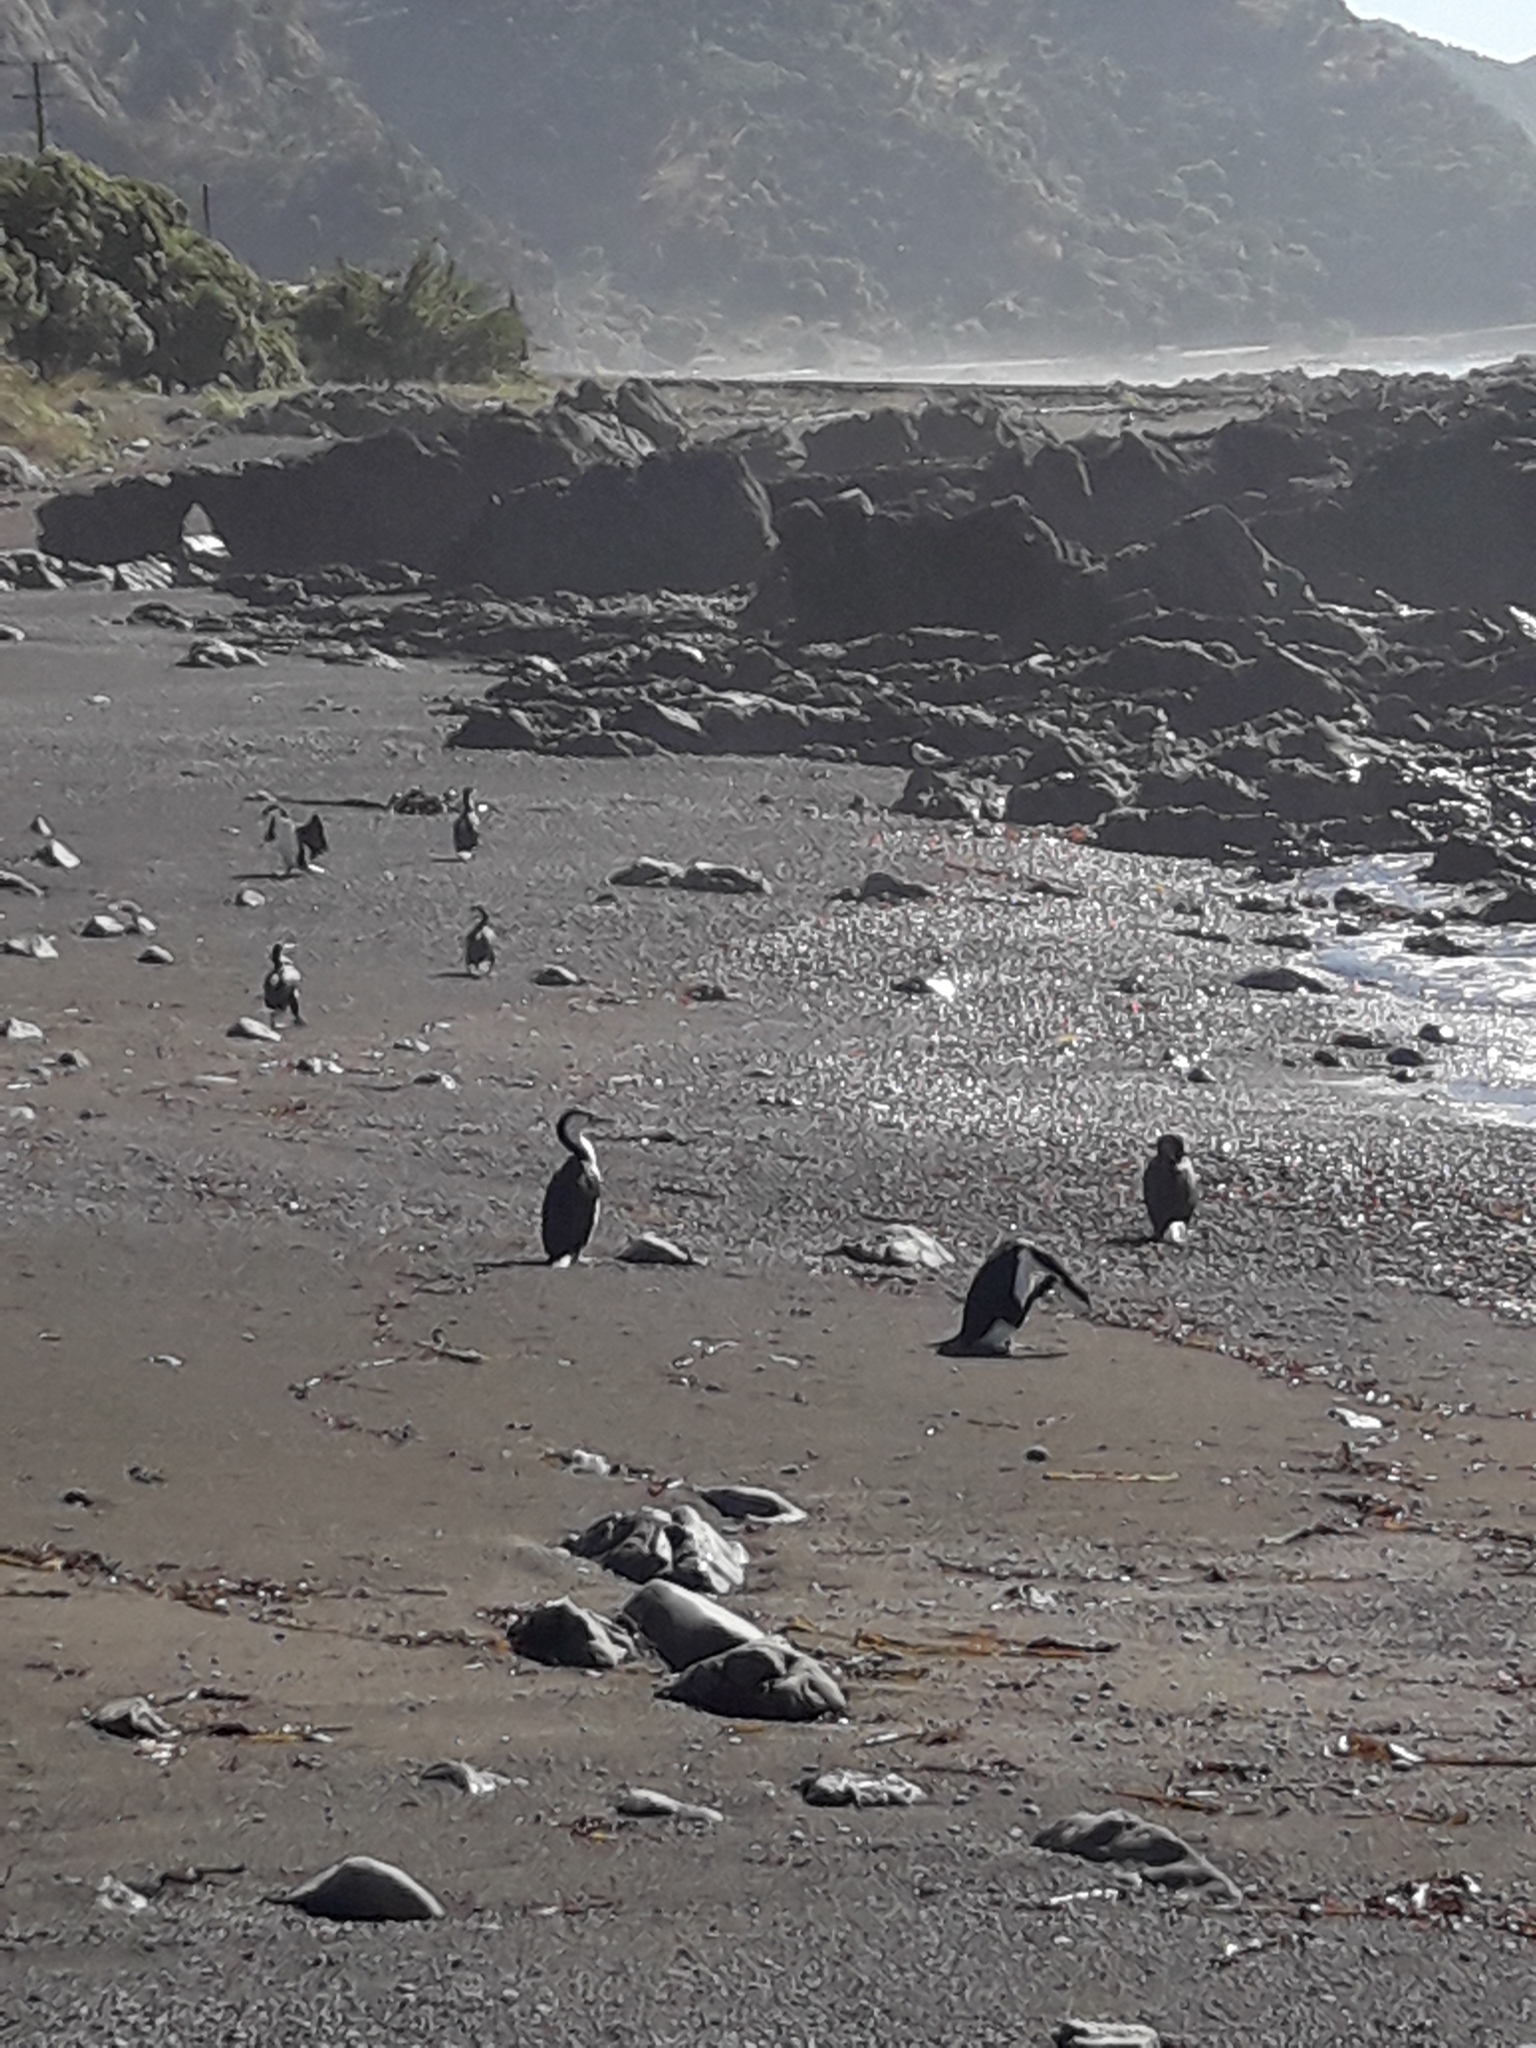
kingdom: Animalia
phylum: Chordata
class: Aves
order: Suliformes
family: Phalacrocoracidae
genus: Phalacrocorax
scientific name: Phalacrocorax varius
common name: Pied cormorant
